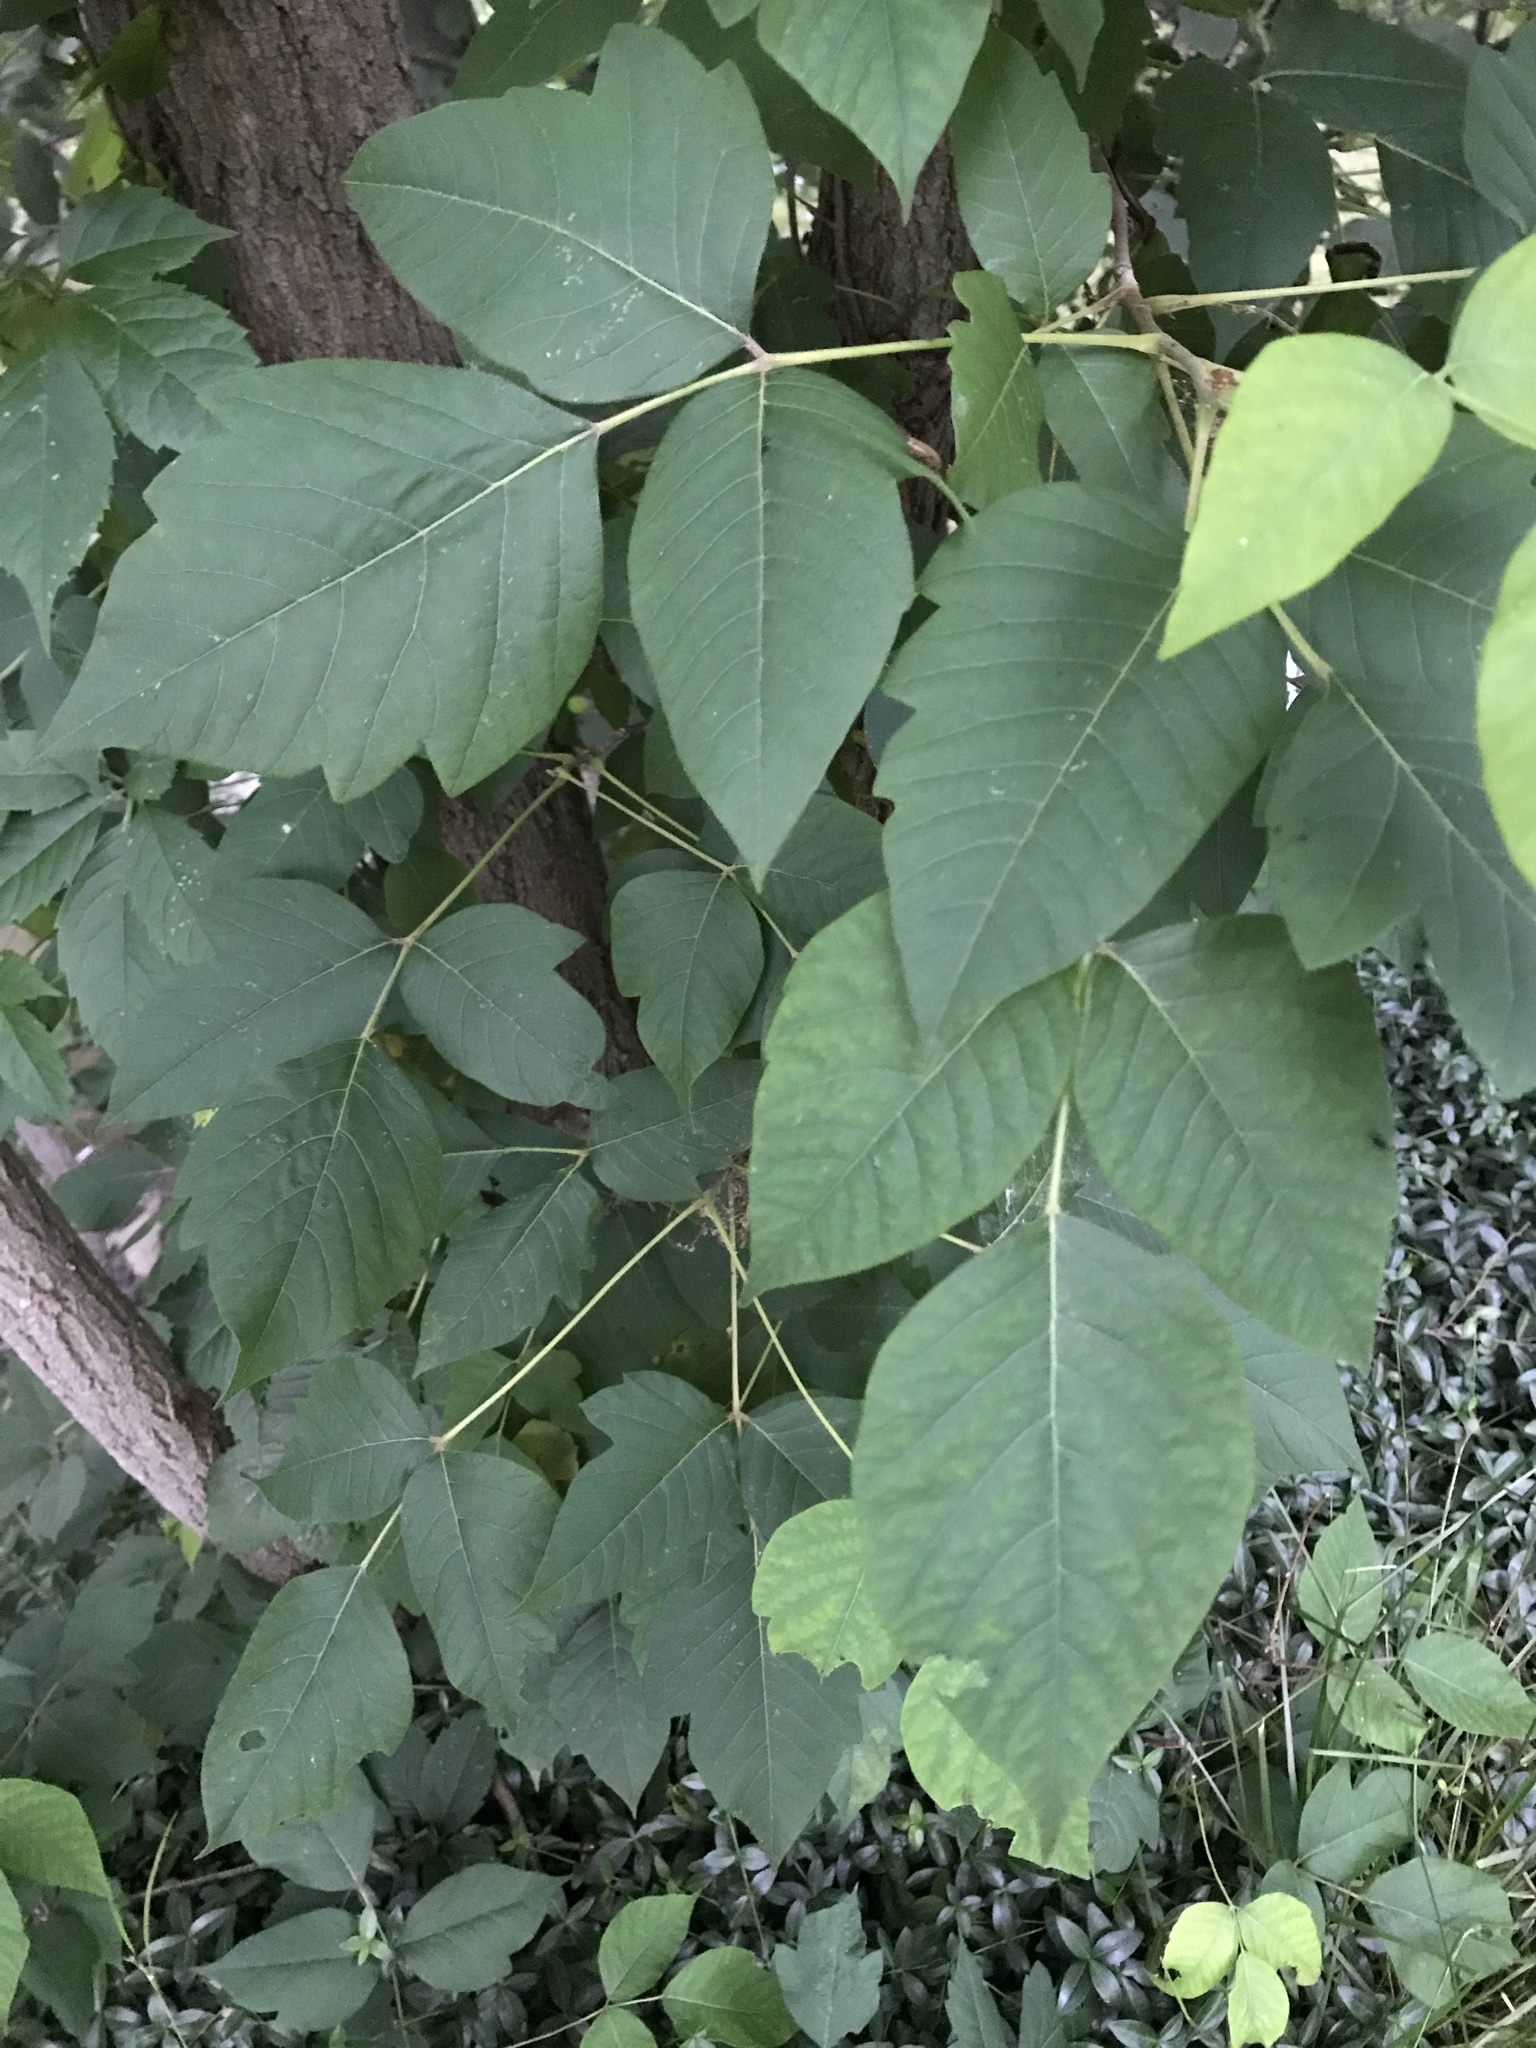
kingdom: Plantae
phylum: Tracheophyta
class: Magnoliopsida
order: Sapindales
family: Anacardiaceae
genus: Toxicodendron
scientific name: Toxicodendron radicans
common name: Poison ivy
